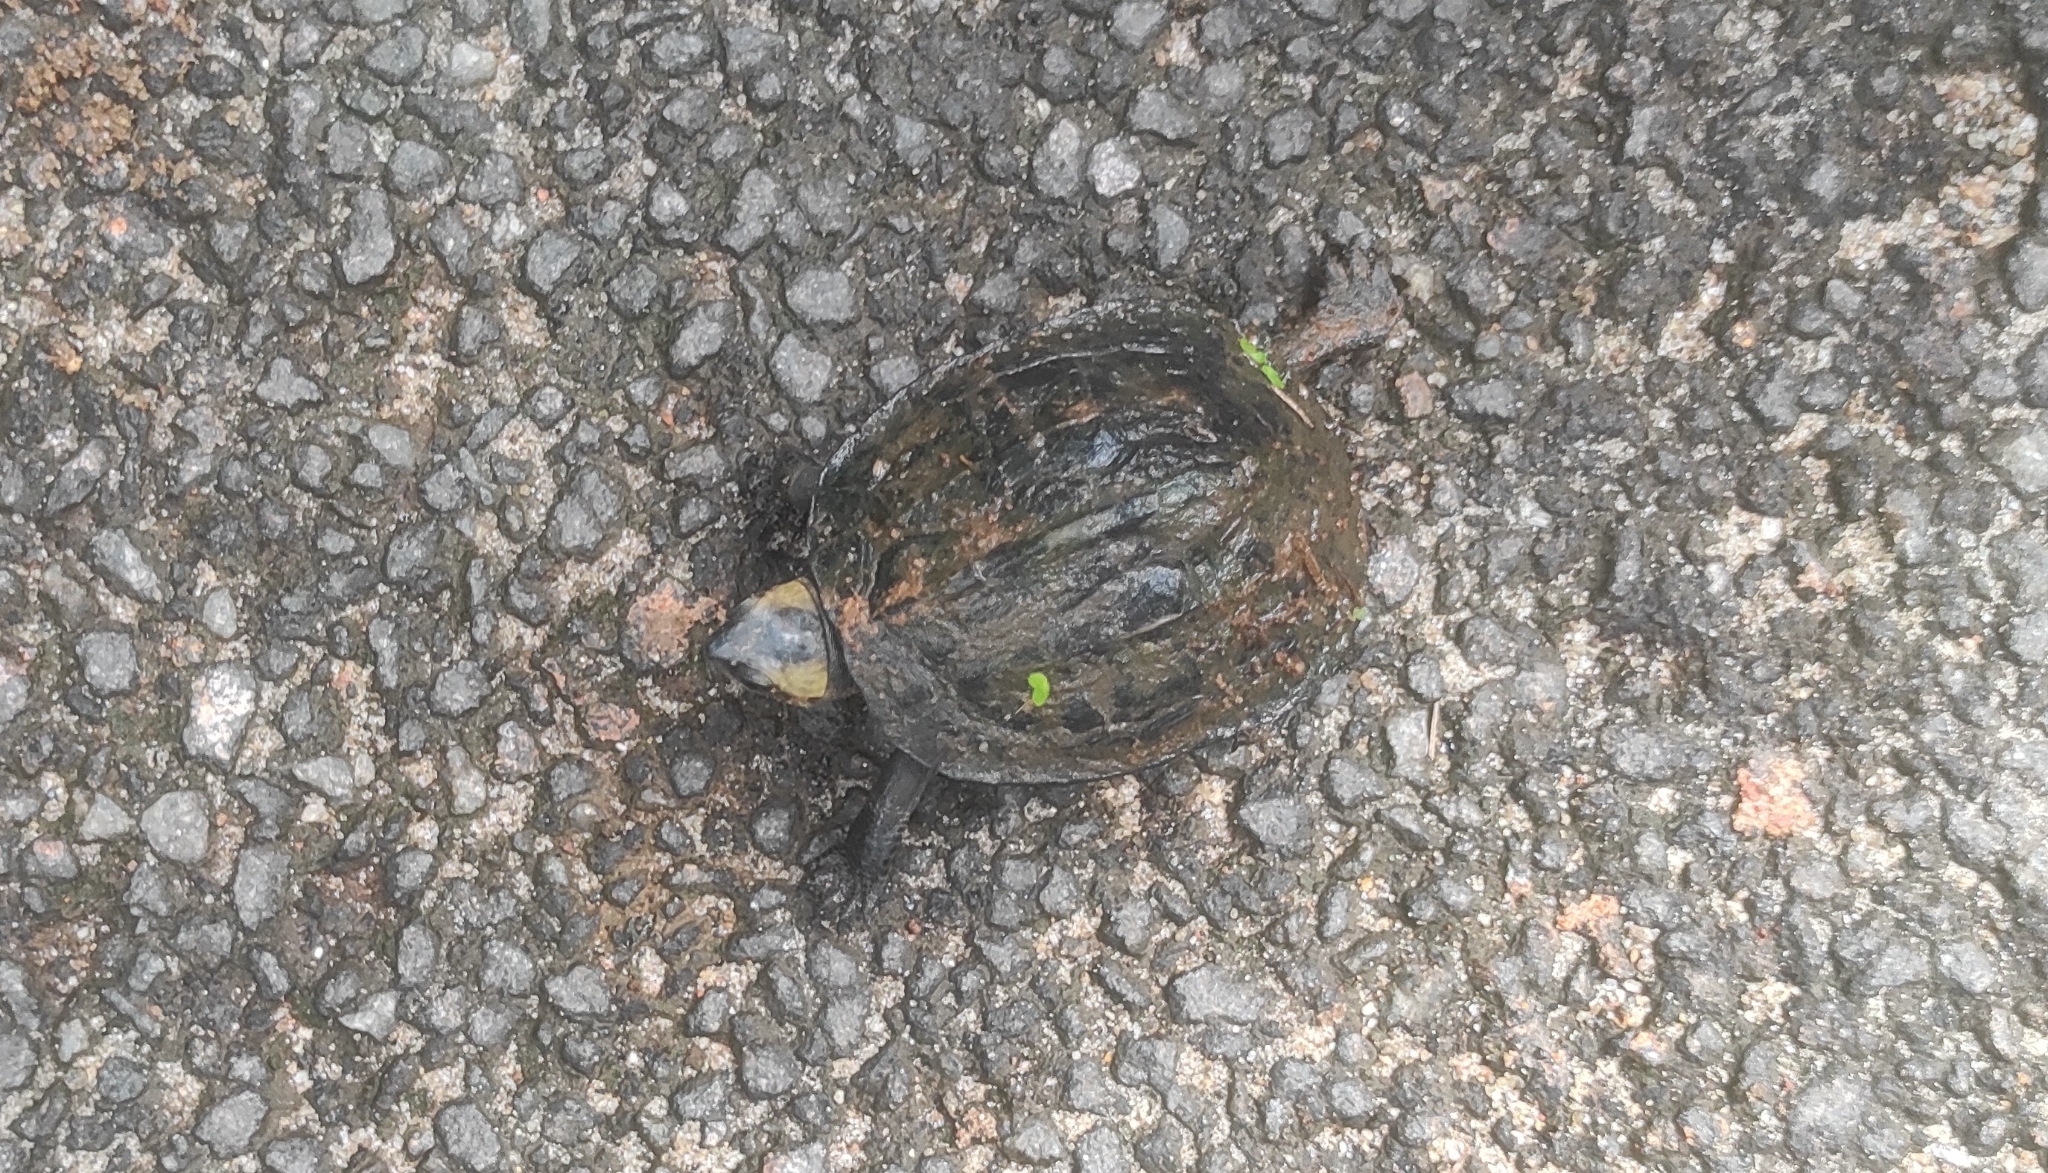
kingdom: Animalia
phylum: Chordata
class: Testudines
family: Geoemydidae
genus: Melanochelys
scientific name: Melanochelys trijuga
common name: Indian black turtle
